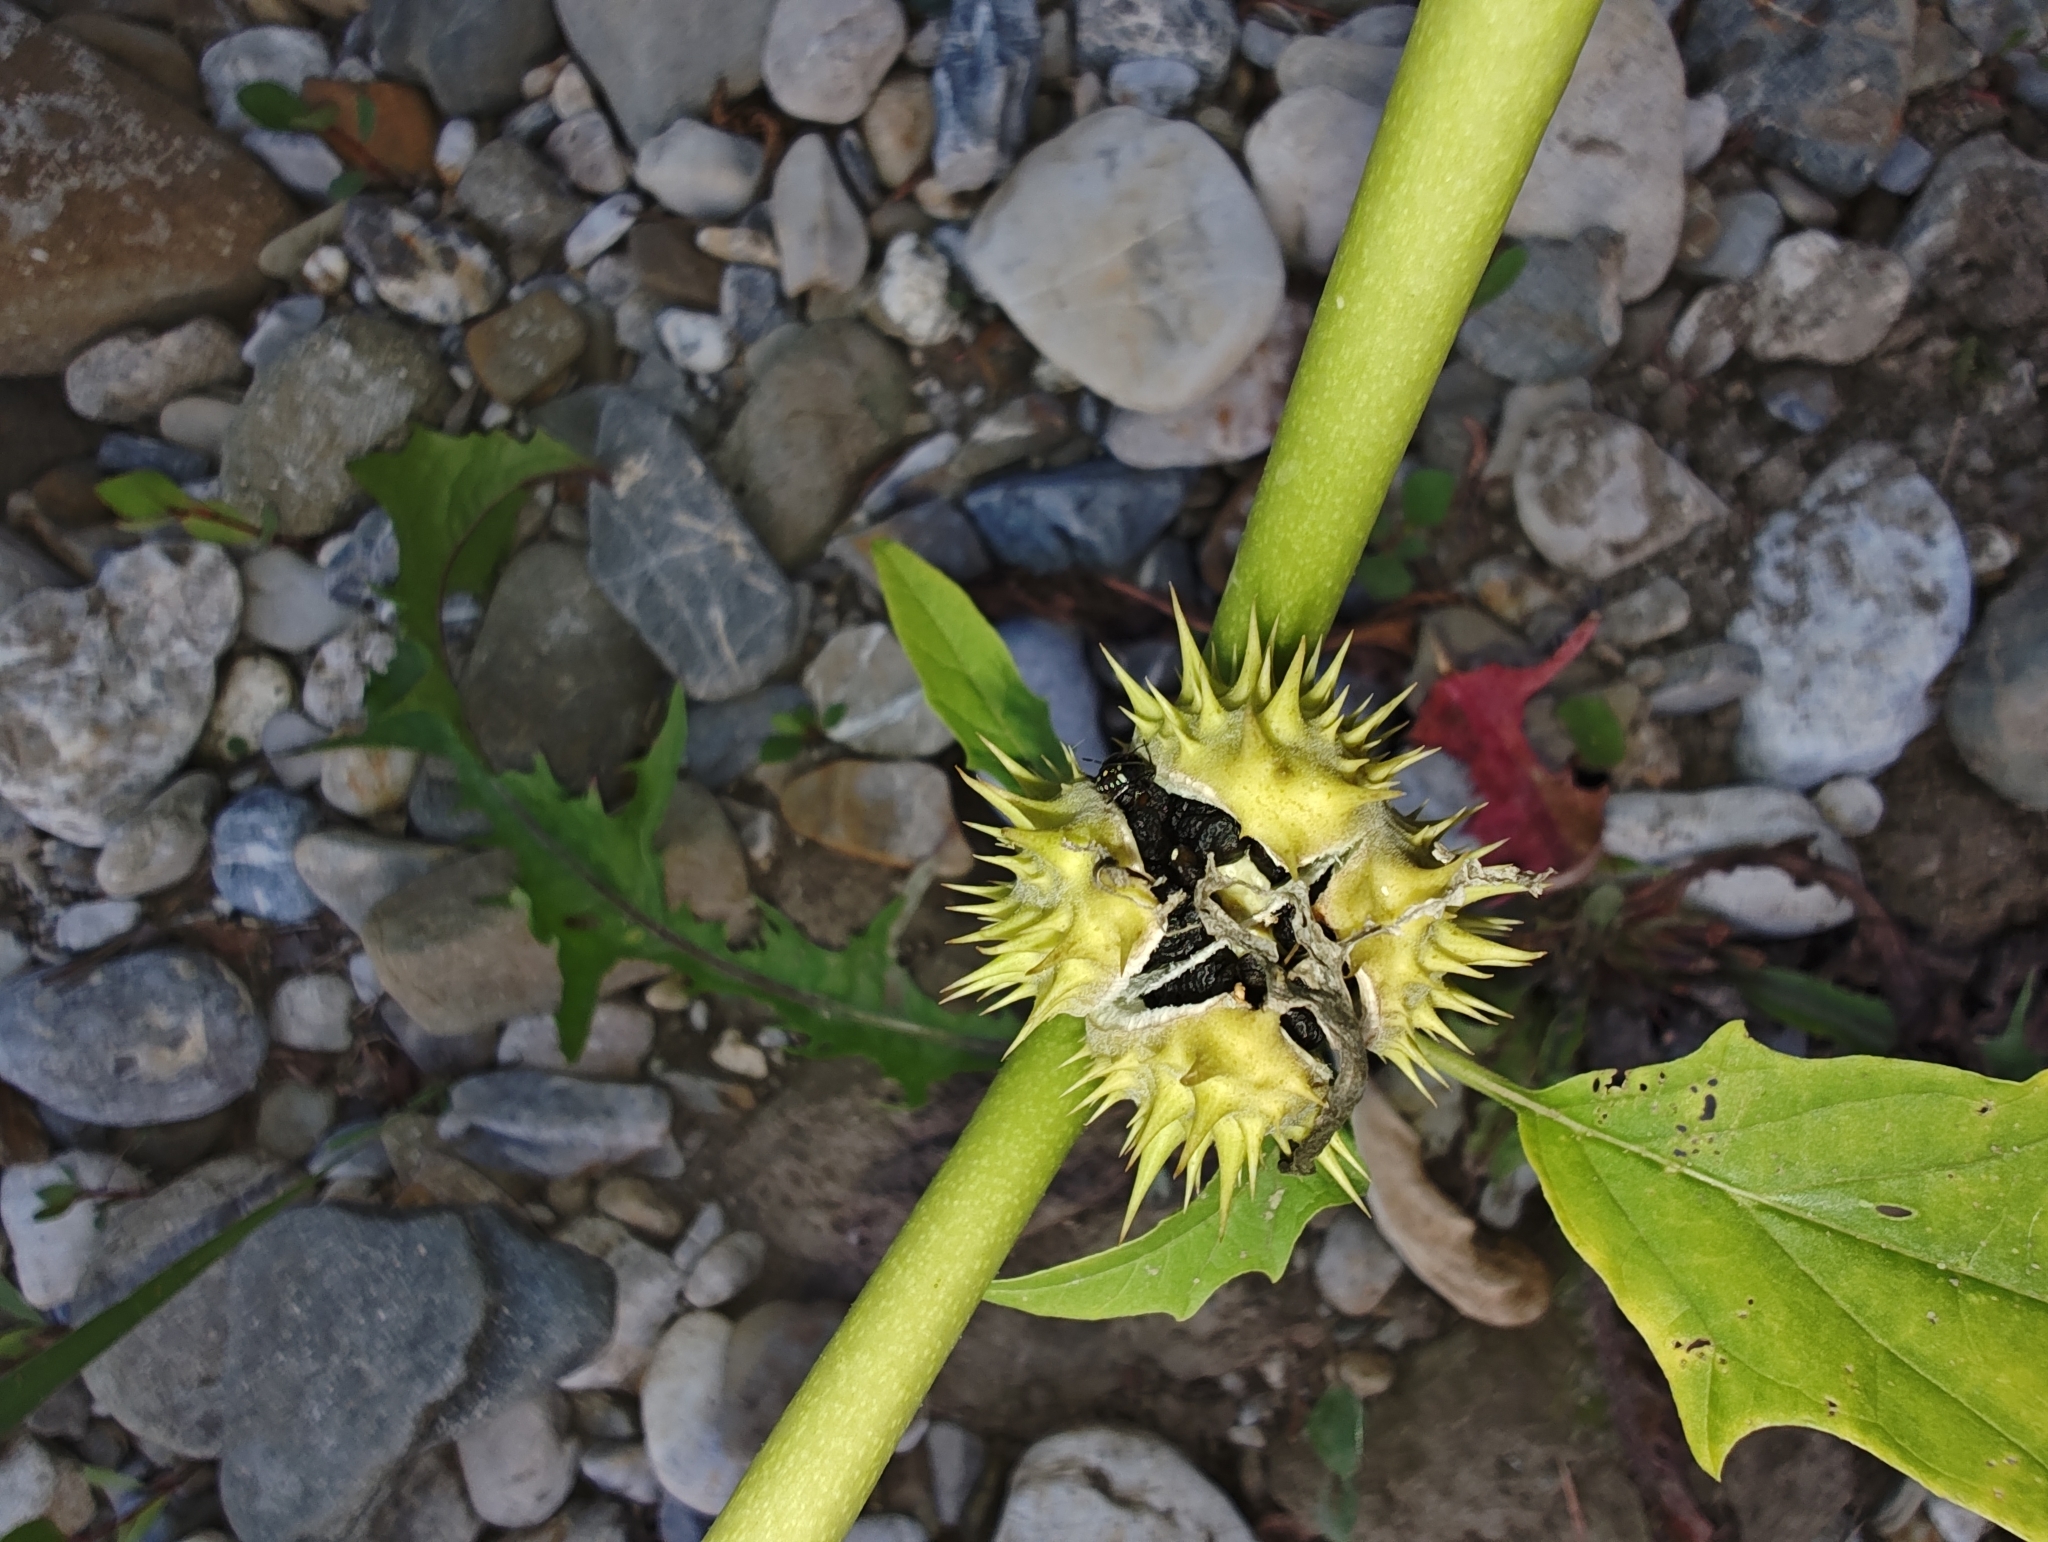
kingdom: Plantae
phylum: Tracheophyta
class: Magnoliopsida
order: Solanales
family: Solanaceae
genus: Datura
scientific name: Datura stramonium
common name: Thorn-apple
